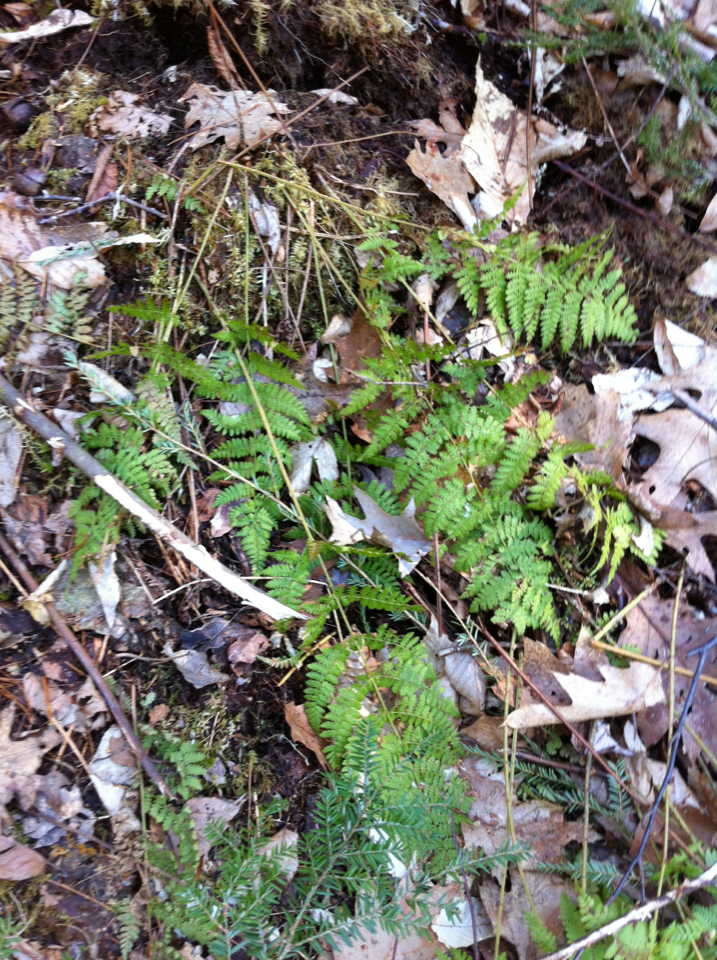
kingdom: Plantae
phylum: Tracheophyta
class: Polypodiopsida
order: Polypodiales
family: Dryopteridaceae
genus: Dryopteris
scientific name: Dryopteris intermedia
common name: Evergreen wood fern
